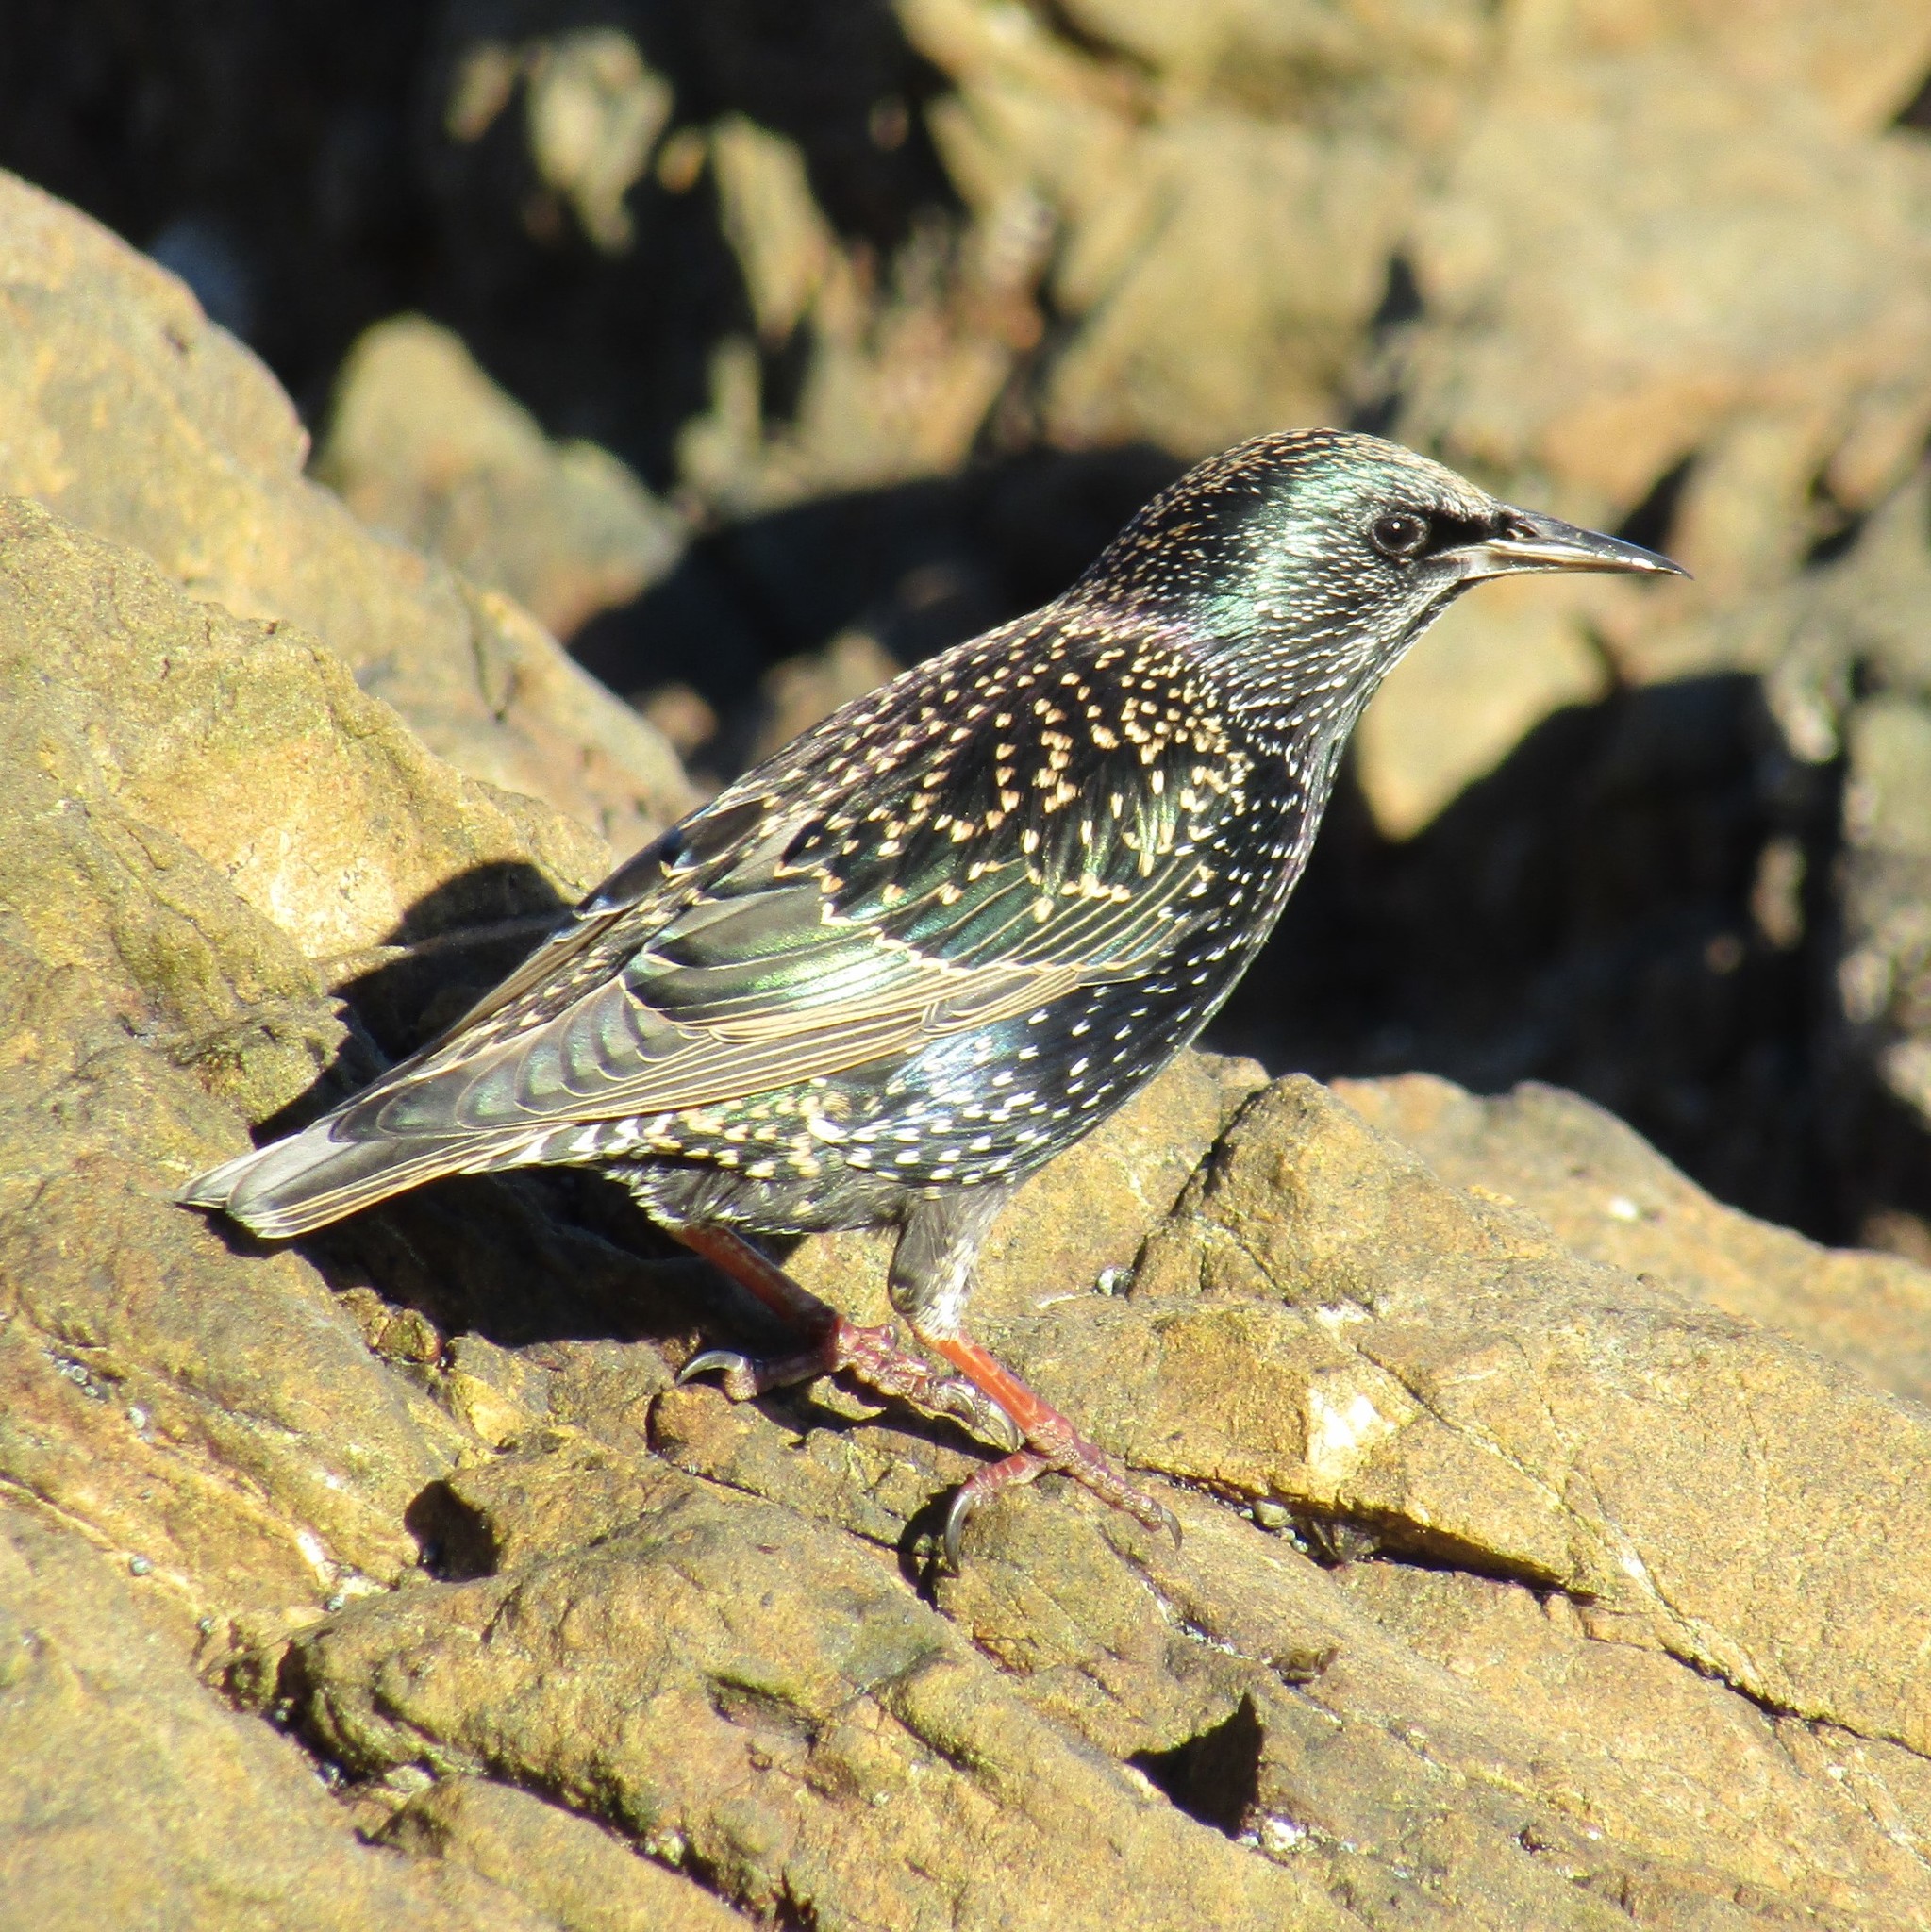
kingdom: Animalia
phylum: Chordata
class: Aves
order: Passeriformes
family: Sturnidae
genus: Sturnus
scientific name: Sturnus vulgaris
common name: Common starling
